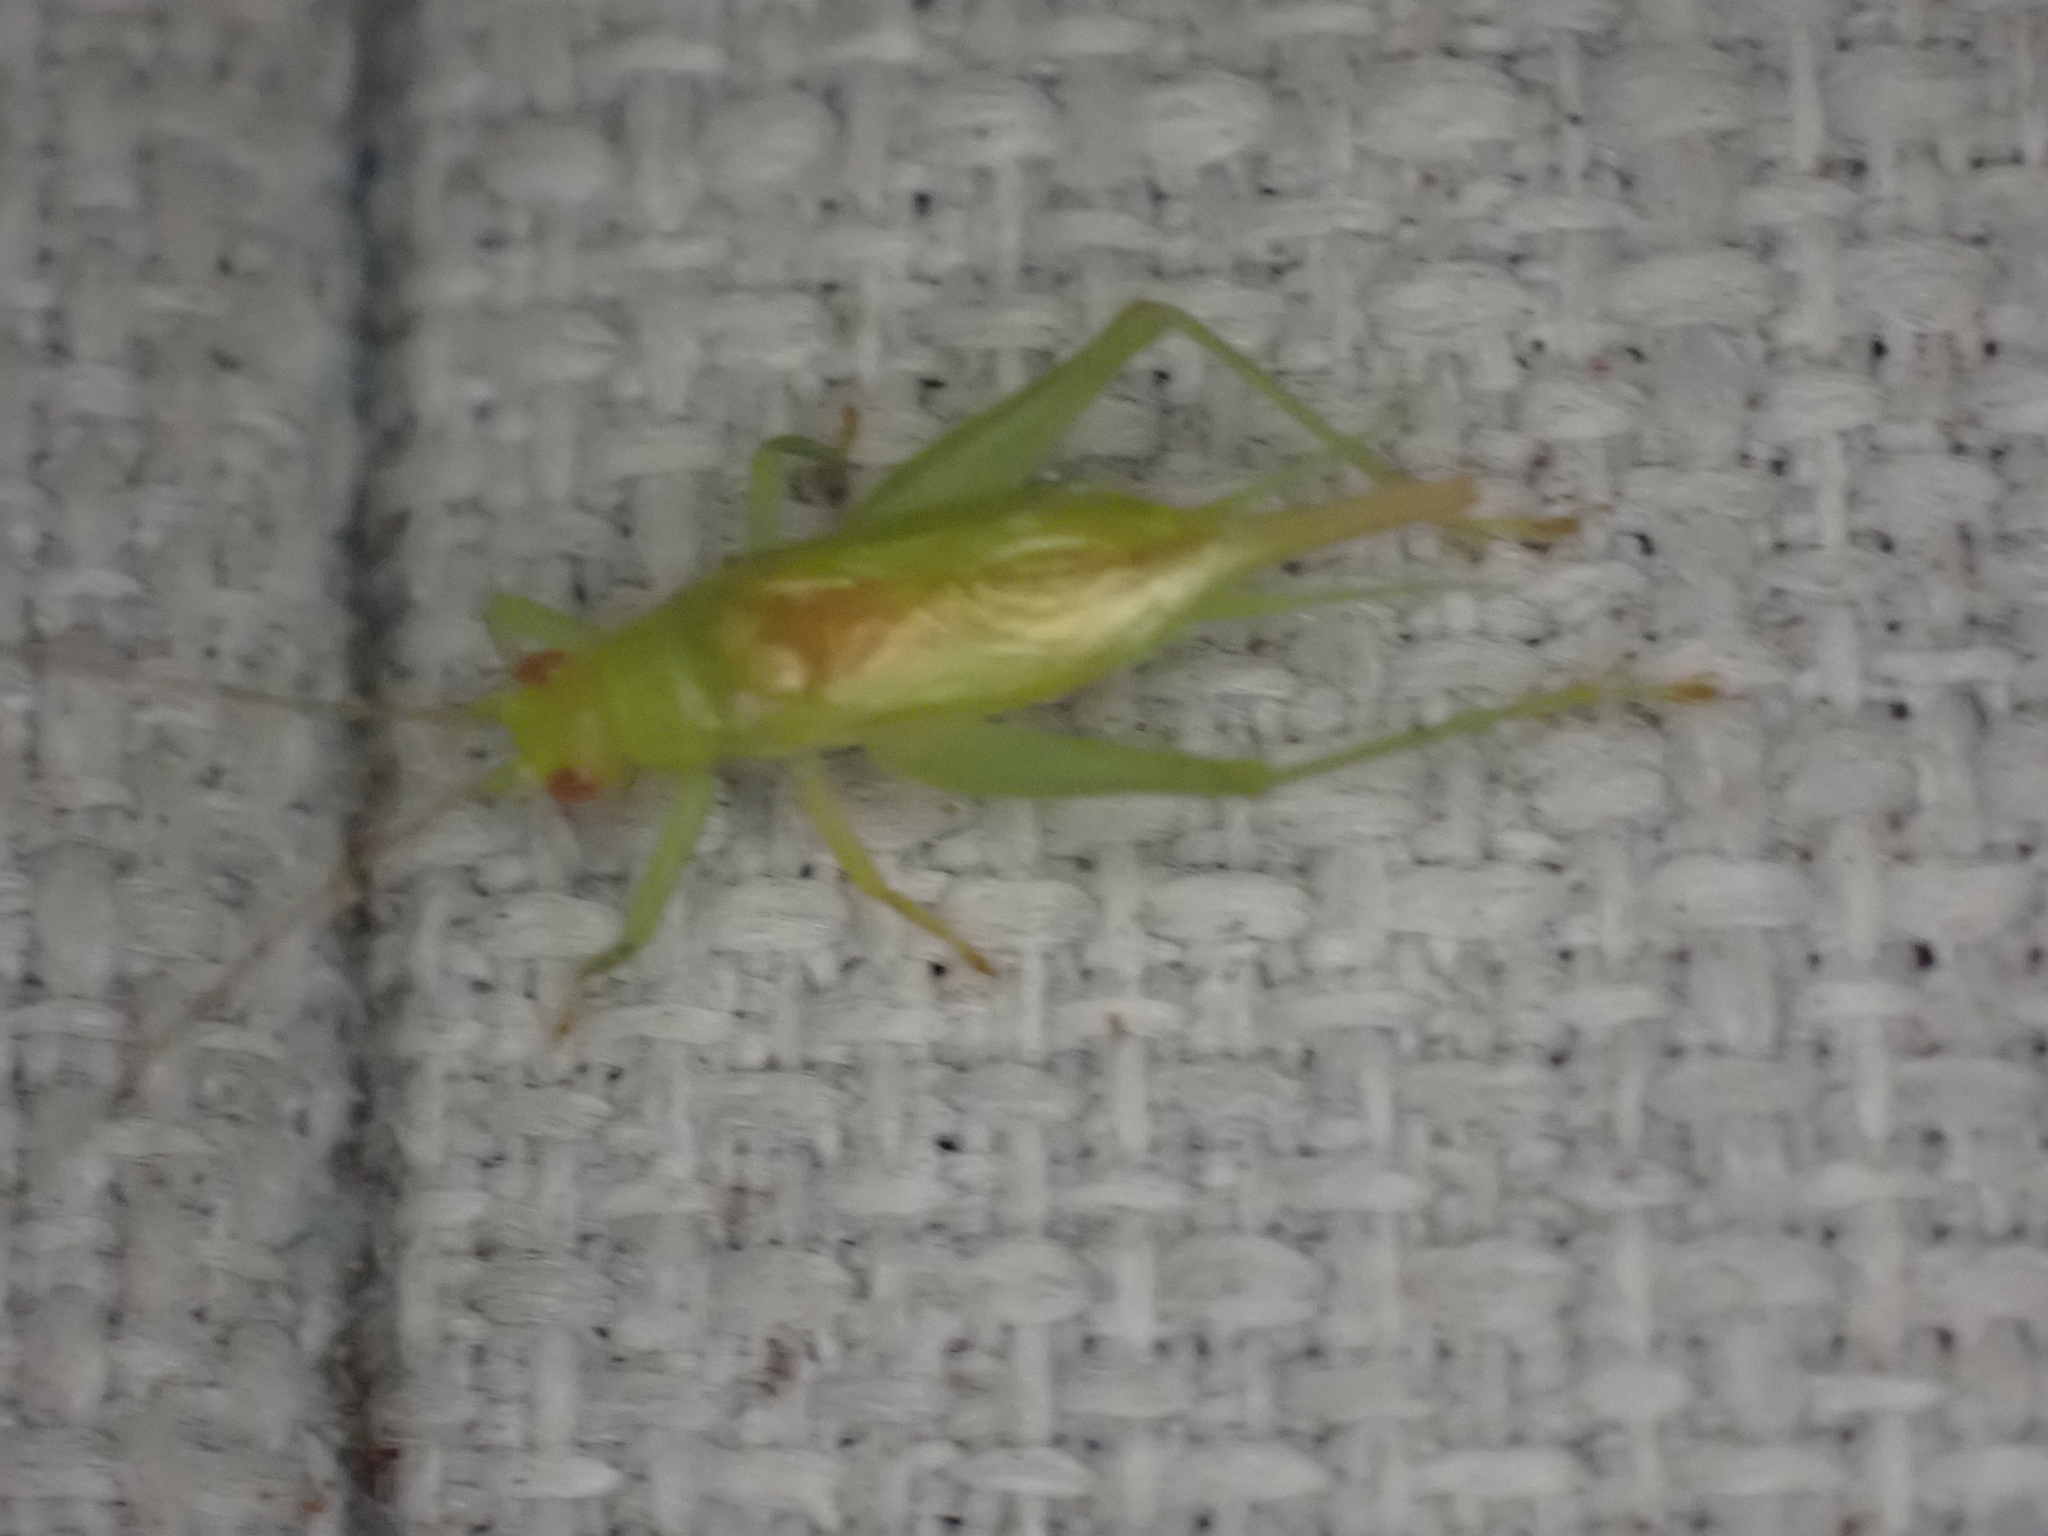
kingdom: Animalia
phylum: Arthropoda
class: Insecta
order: Orthoptera
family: Trigonidiidae
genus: Cyrtoxipha
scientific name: Cyrtoxipha columbiana
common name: Columbian trig
